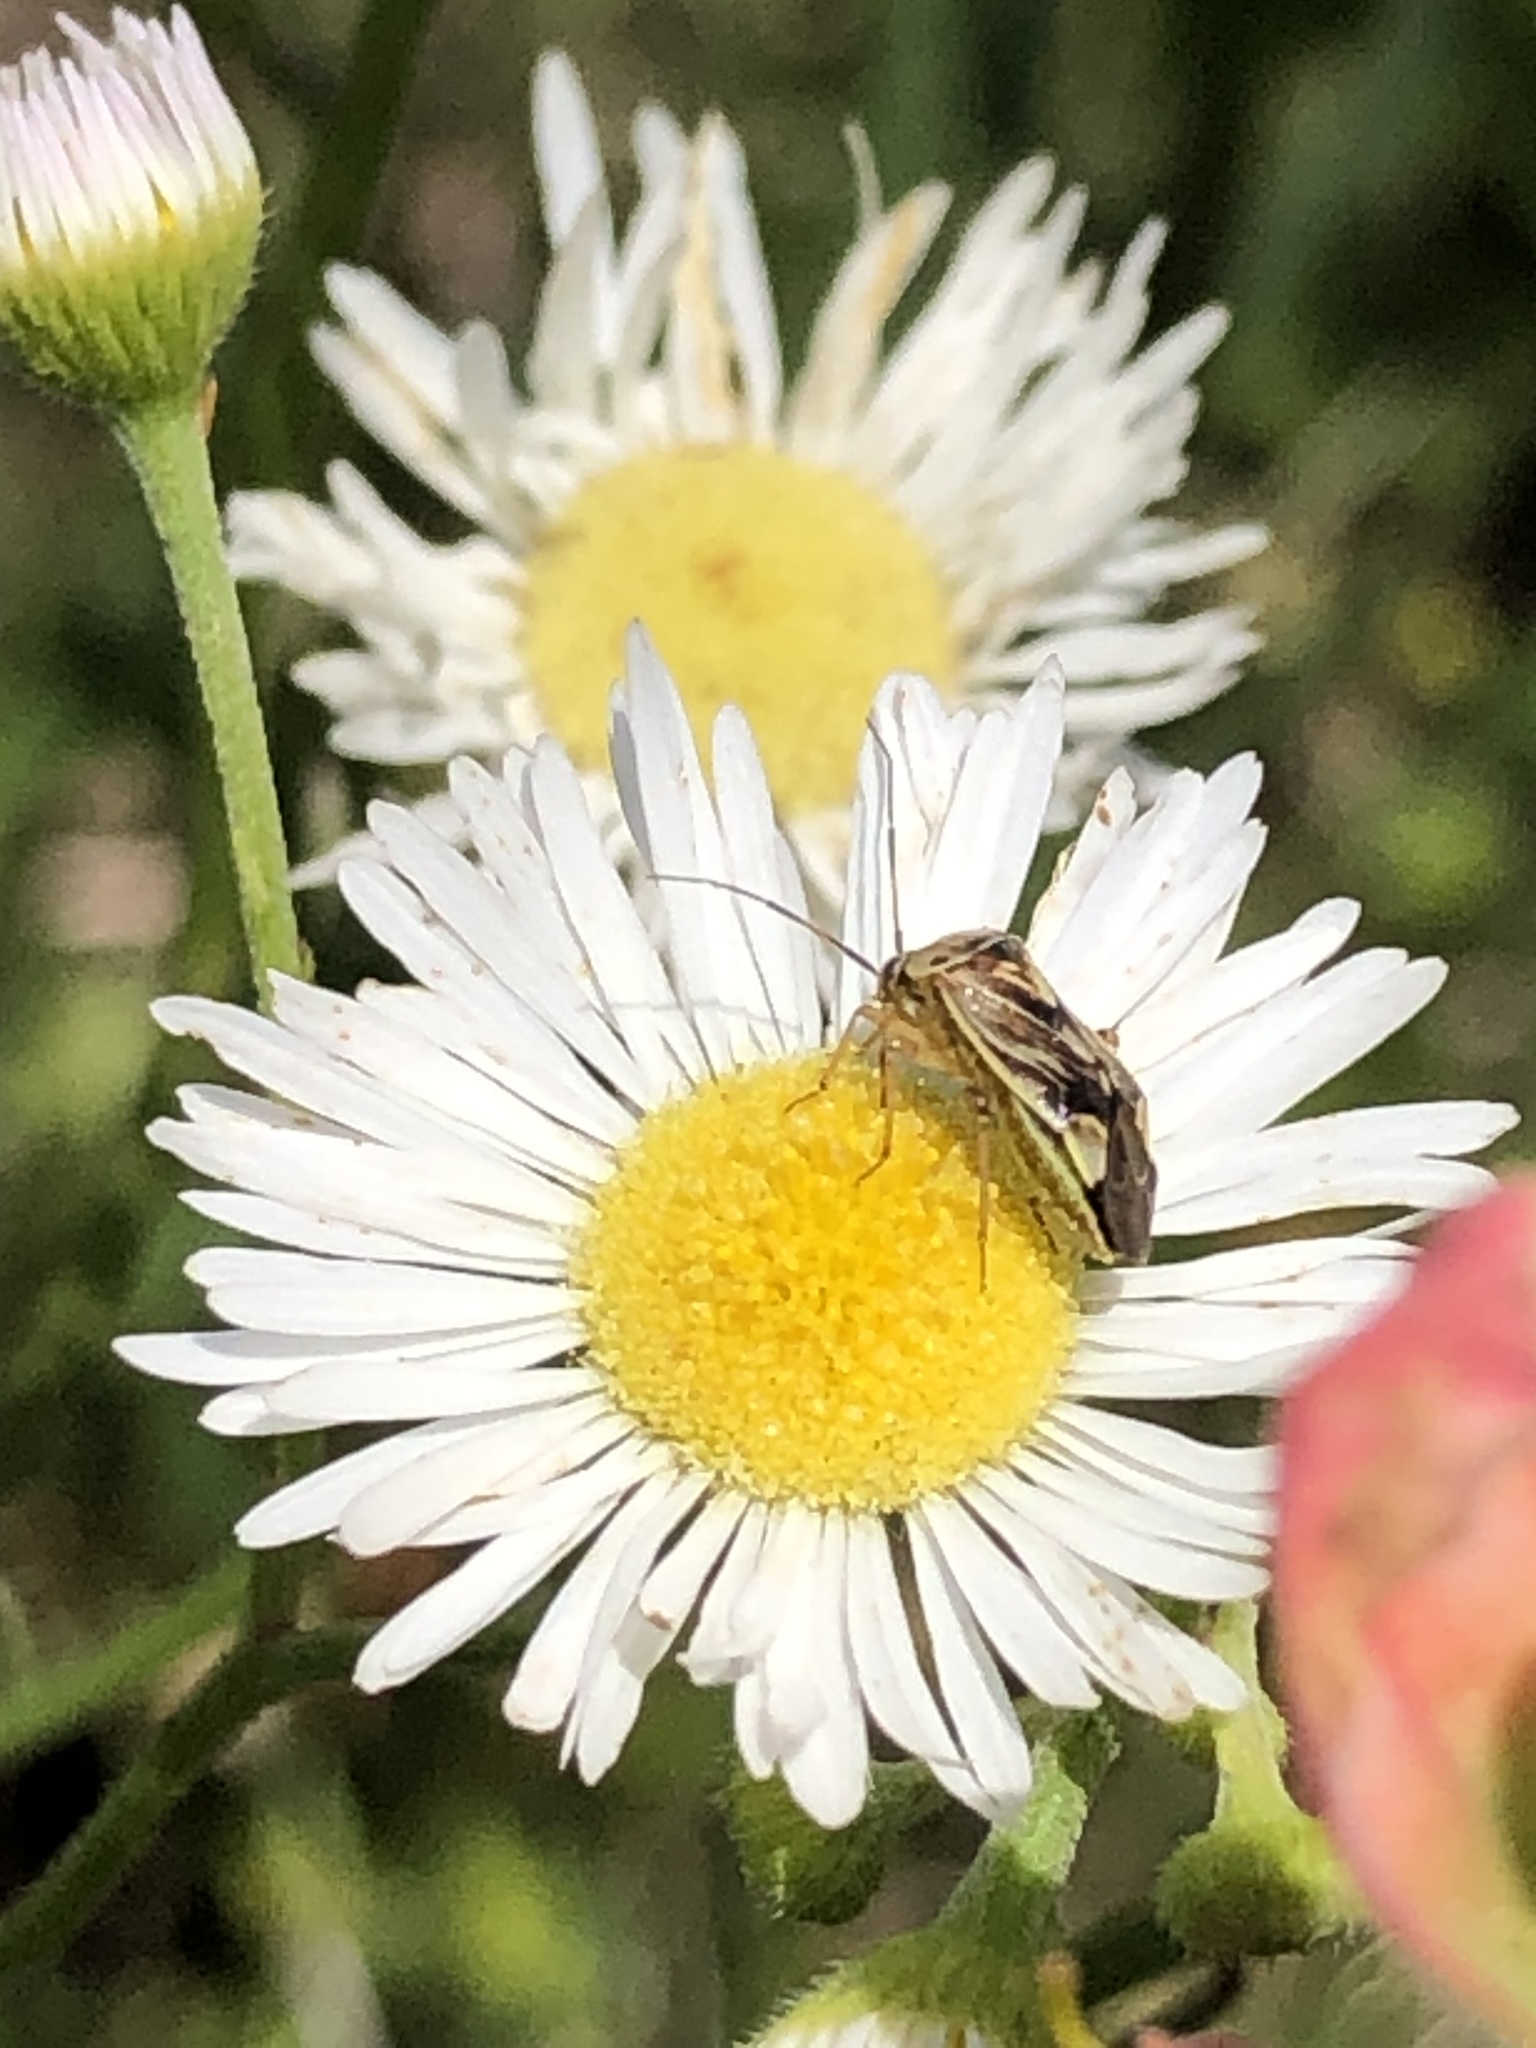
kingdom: Animalia
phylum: Arthropoda
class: Insecta
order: Hemiptera
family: Miridae
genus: Lygus
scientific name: Lygus lineolaris
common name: North american tarnished plant bug
